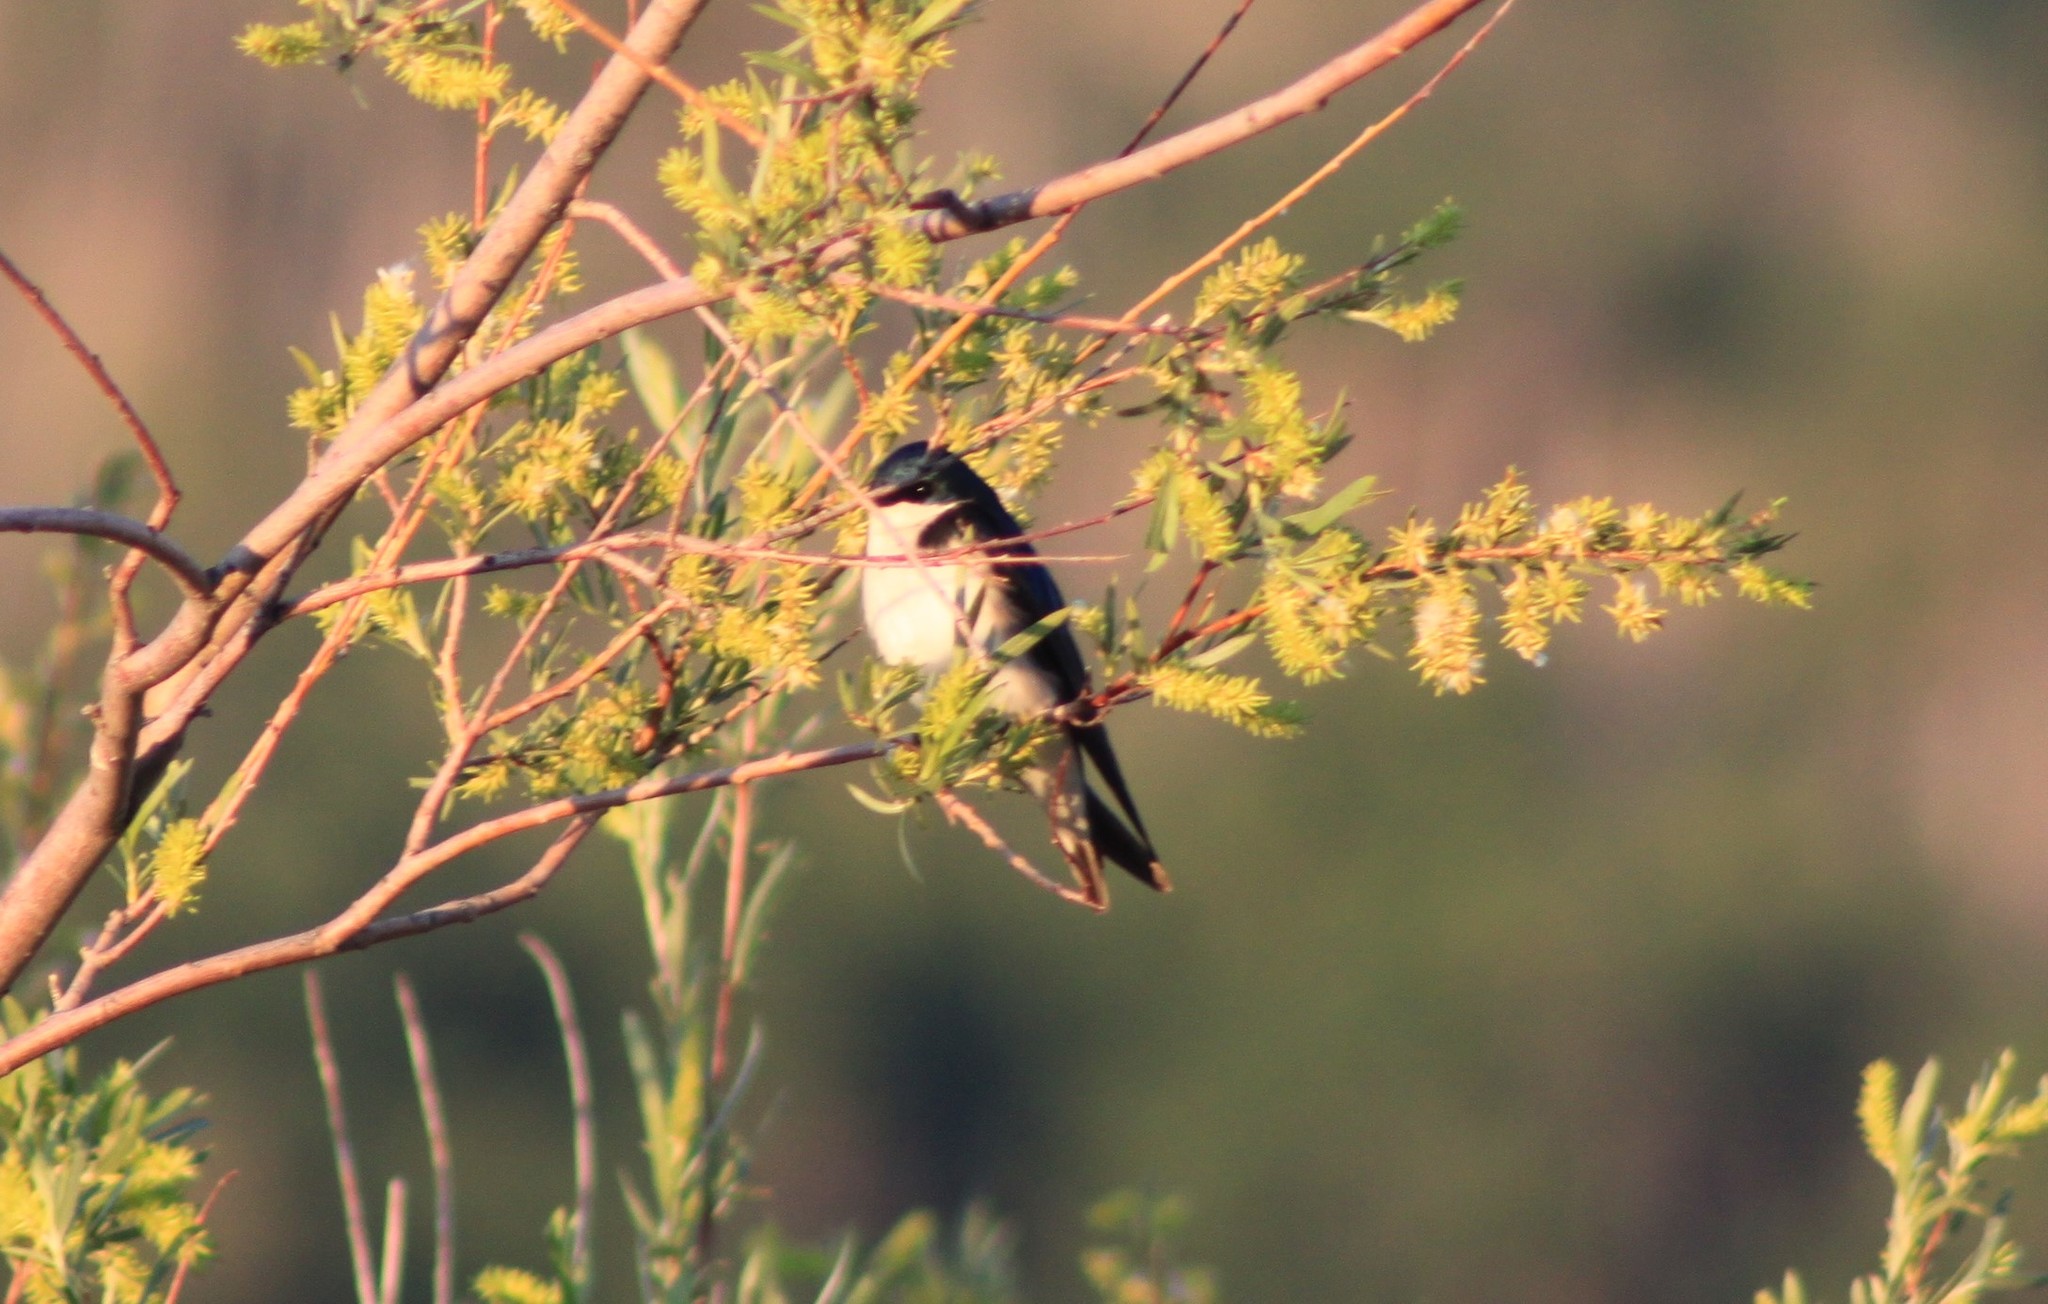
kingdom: Animalia
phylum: Chordata
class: Aves
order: Passeriformes
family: Hirundinidae
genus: Tachycineta
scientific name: Tachycineta bicolor
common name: Tree swallow
